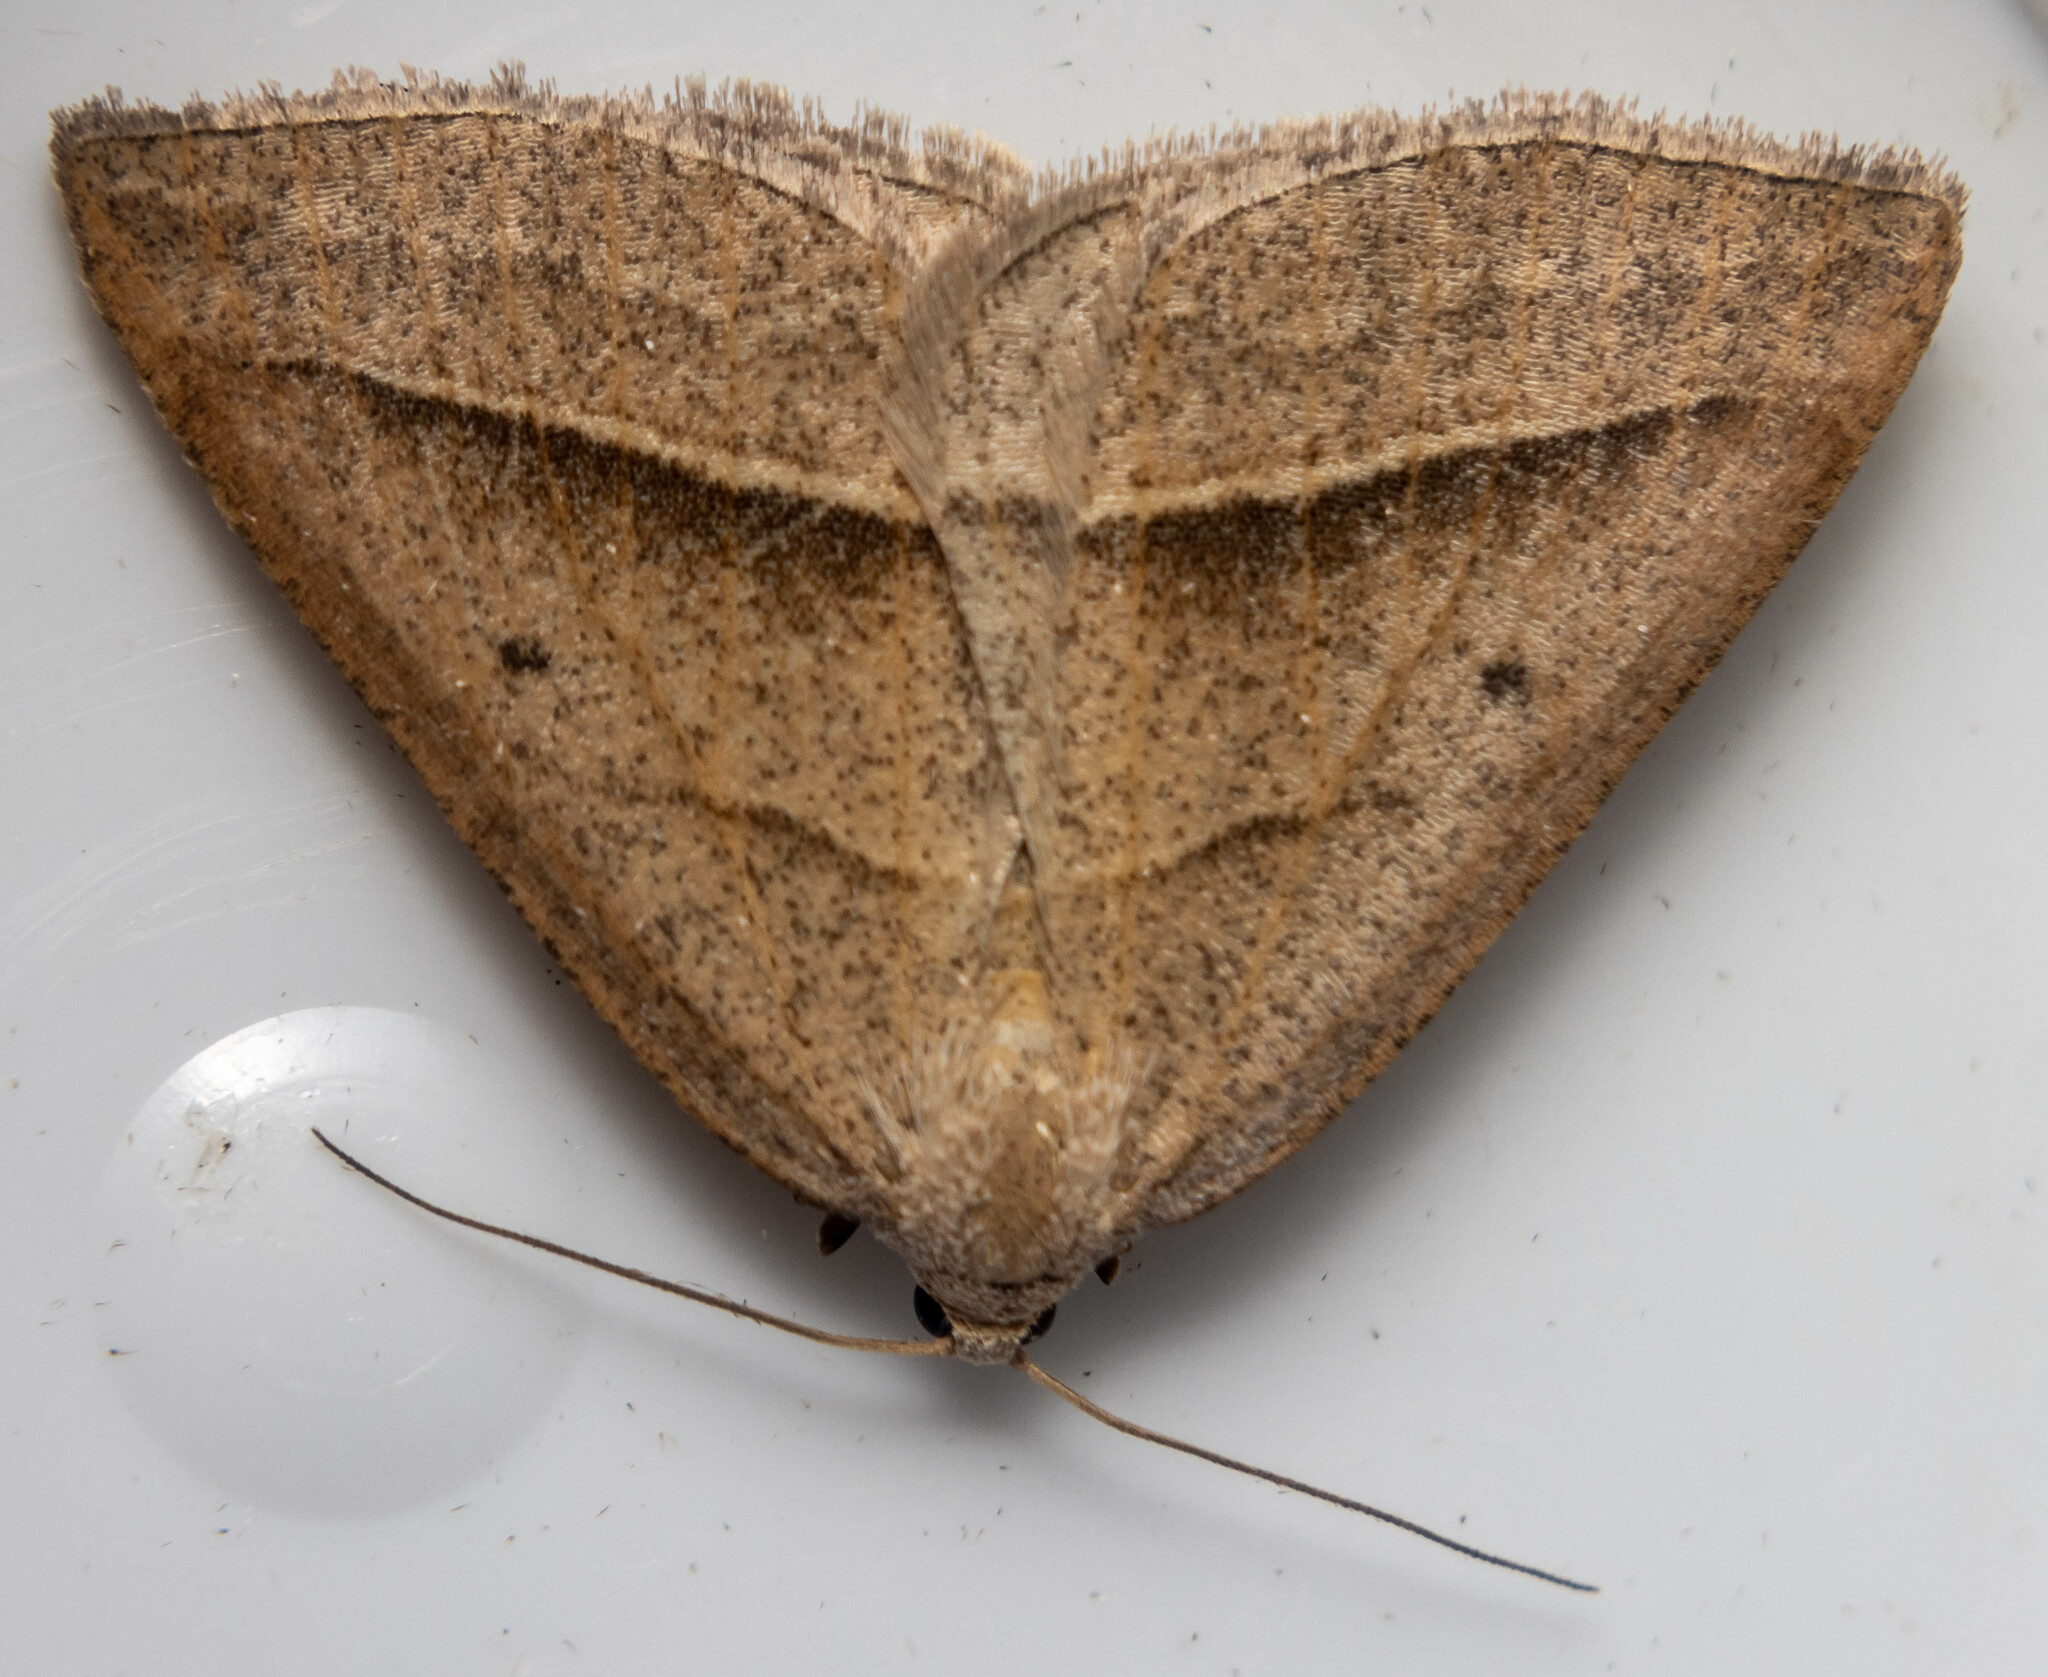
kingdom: Animalia
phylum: Arthropoda
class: Insecta
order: Lepidoptera
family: Pterophoridae
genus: Pterophorus
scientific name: Pterophorus Petrophora chlorosata
